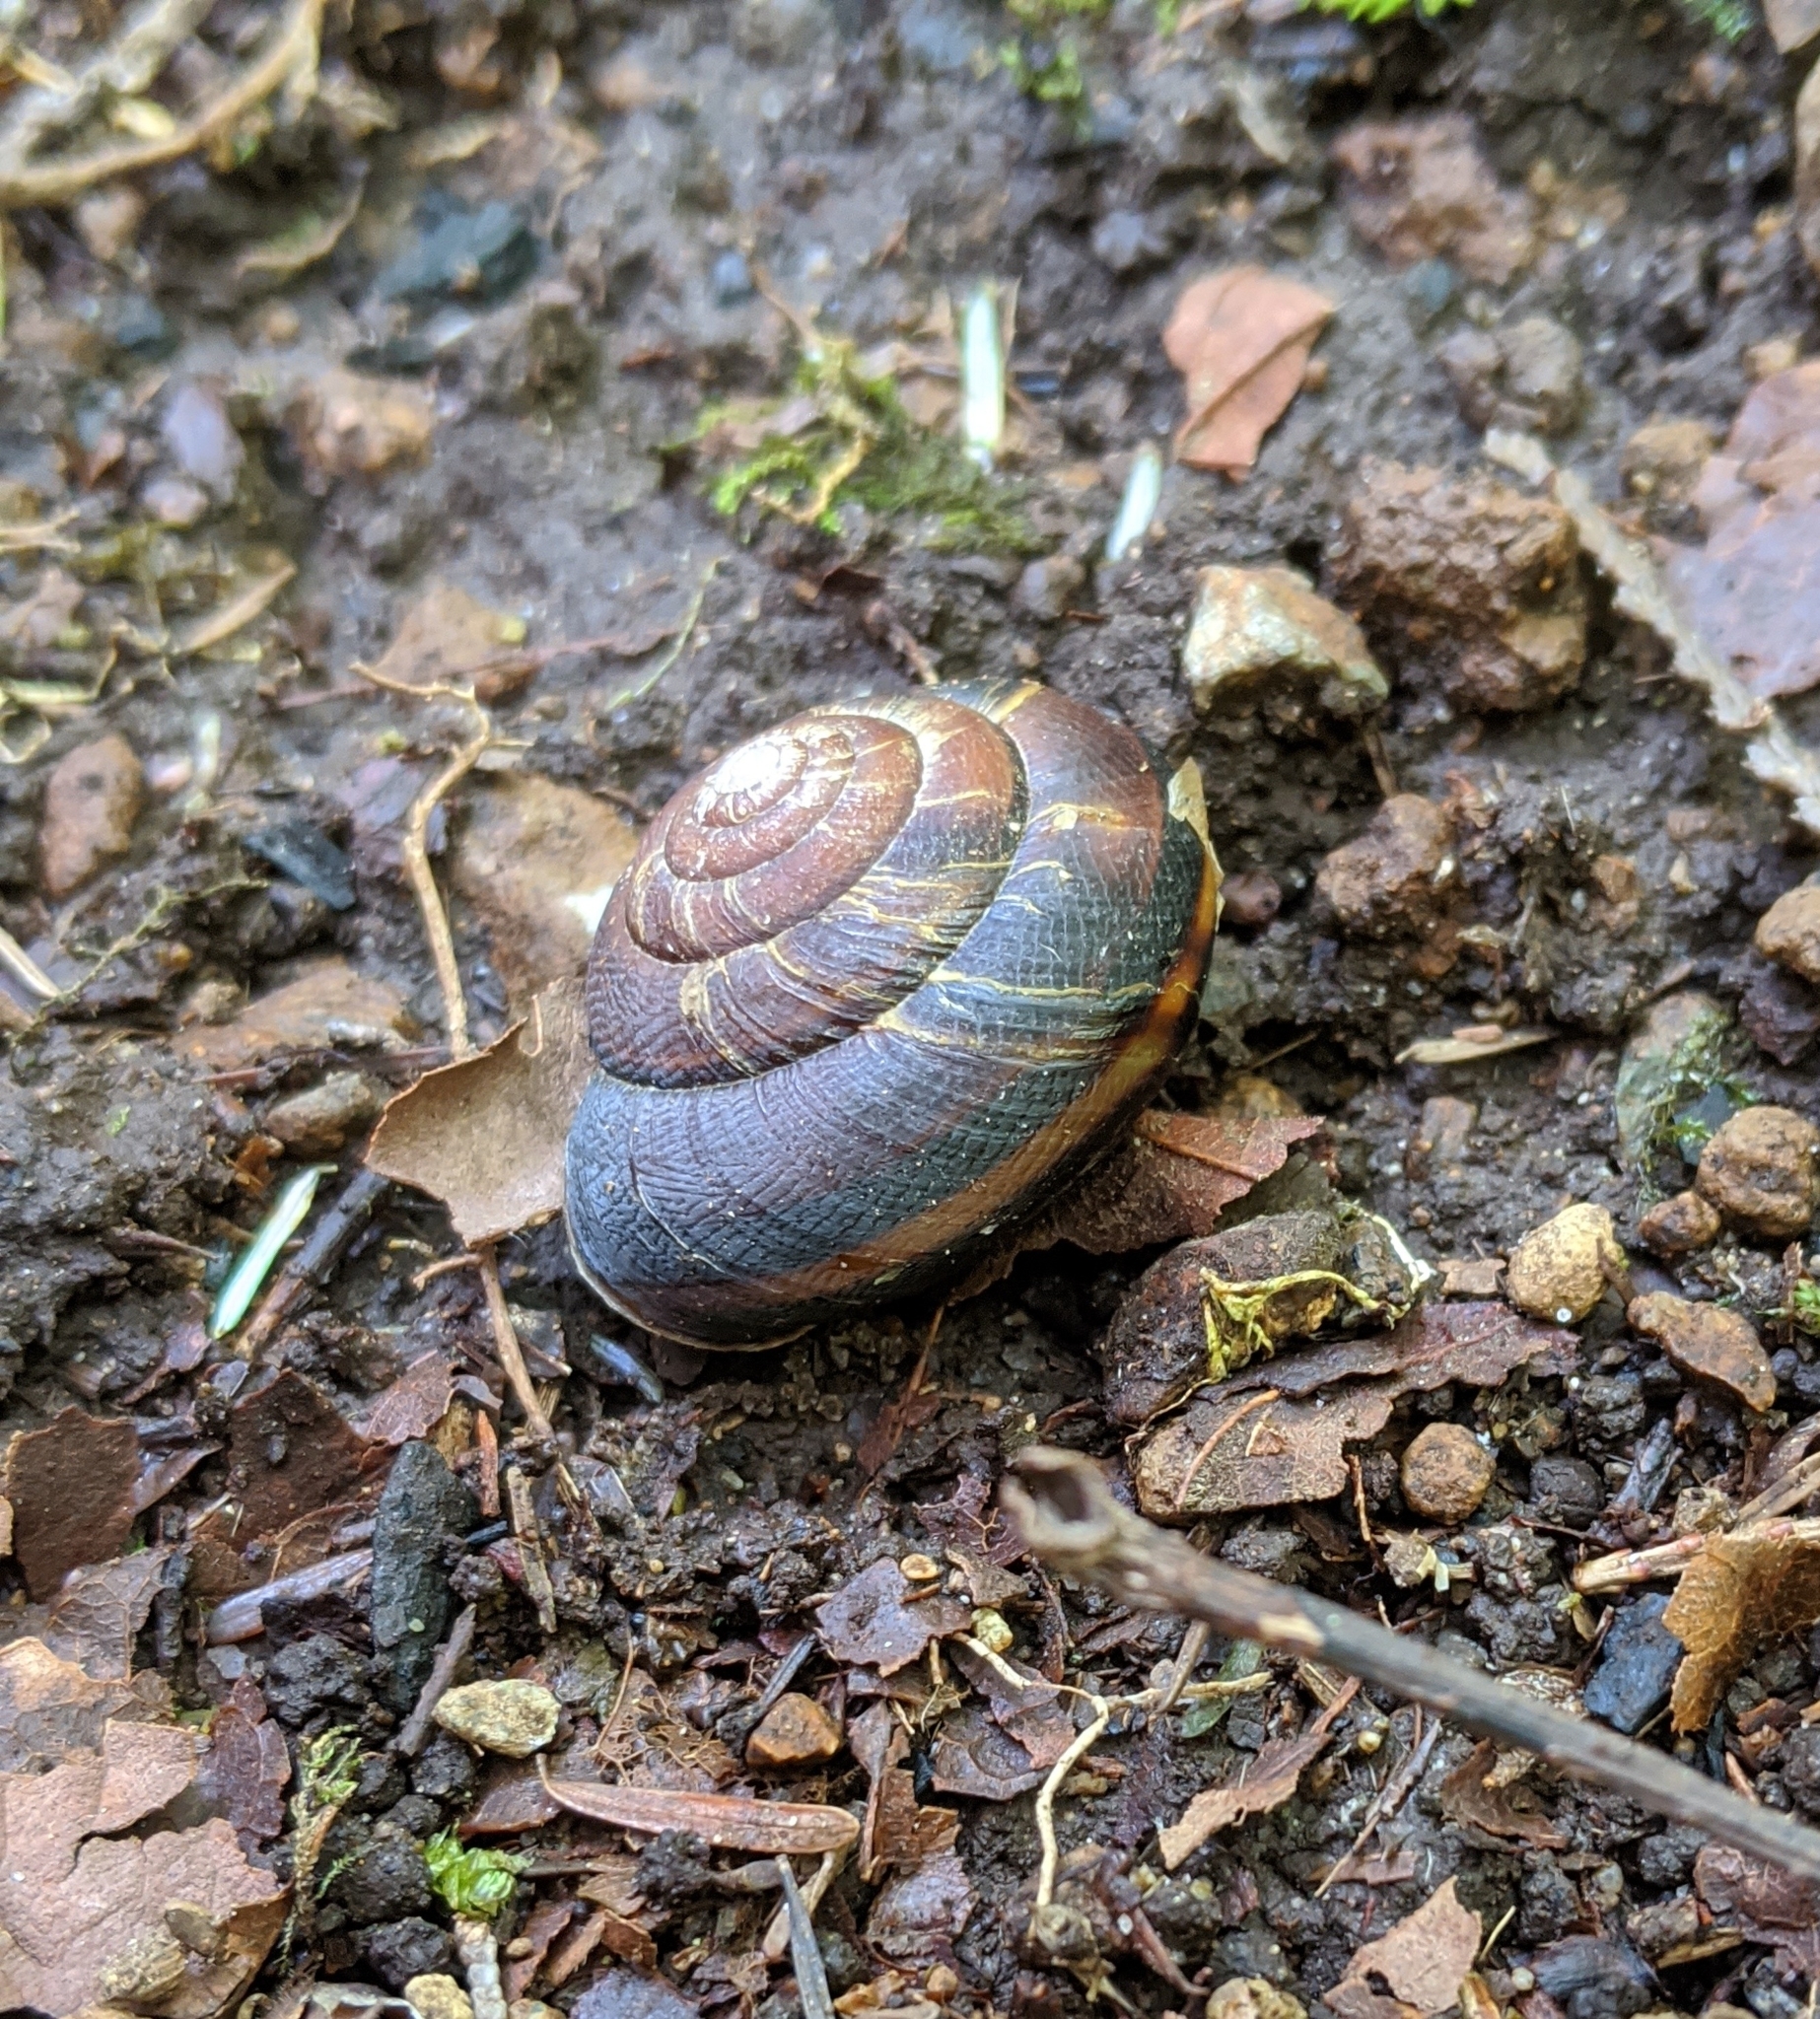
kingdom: Animalia
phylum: Mollusca
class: Gastropoda
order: Stylommatophora
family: Xanthonychidae
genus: Monadenia
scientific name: Monadenia fidelis
